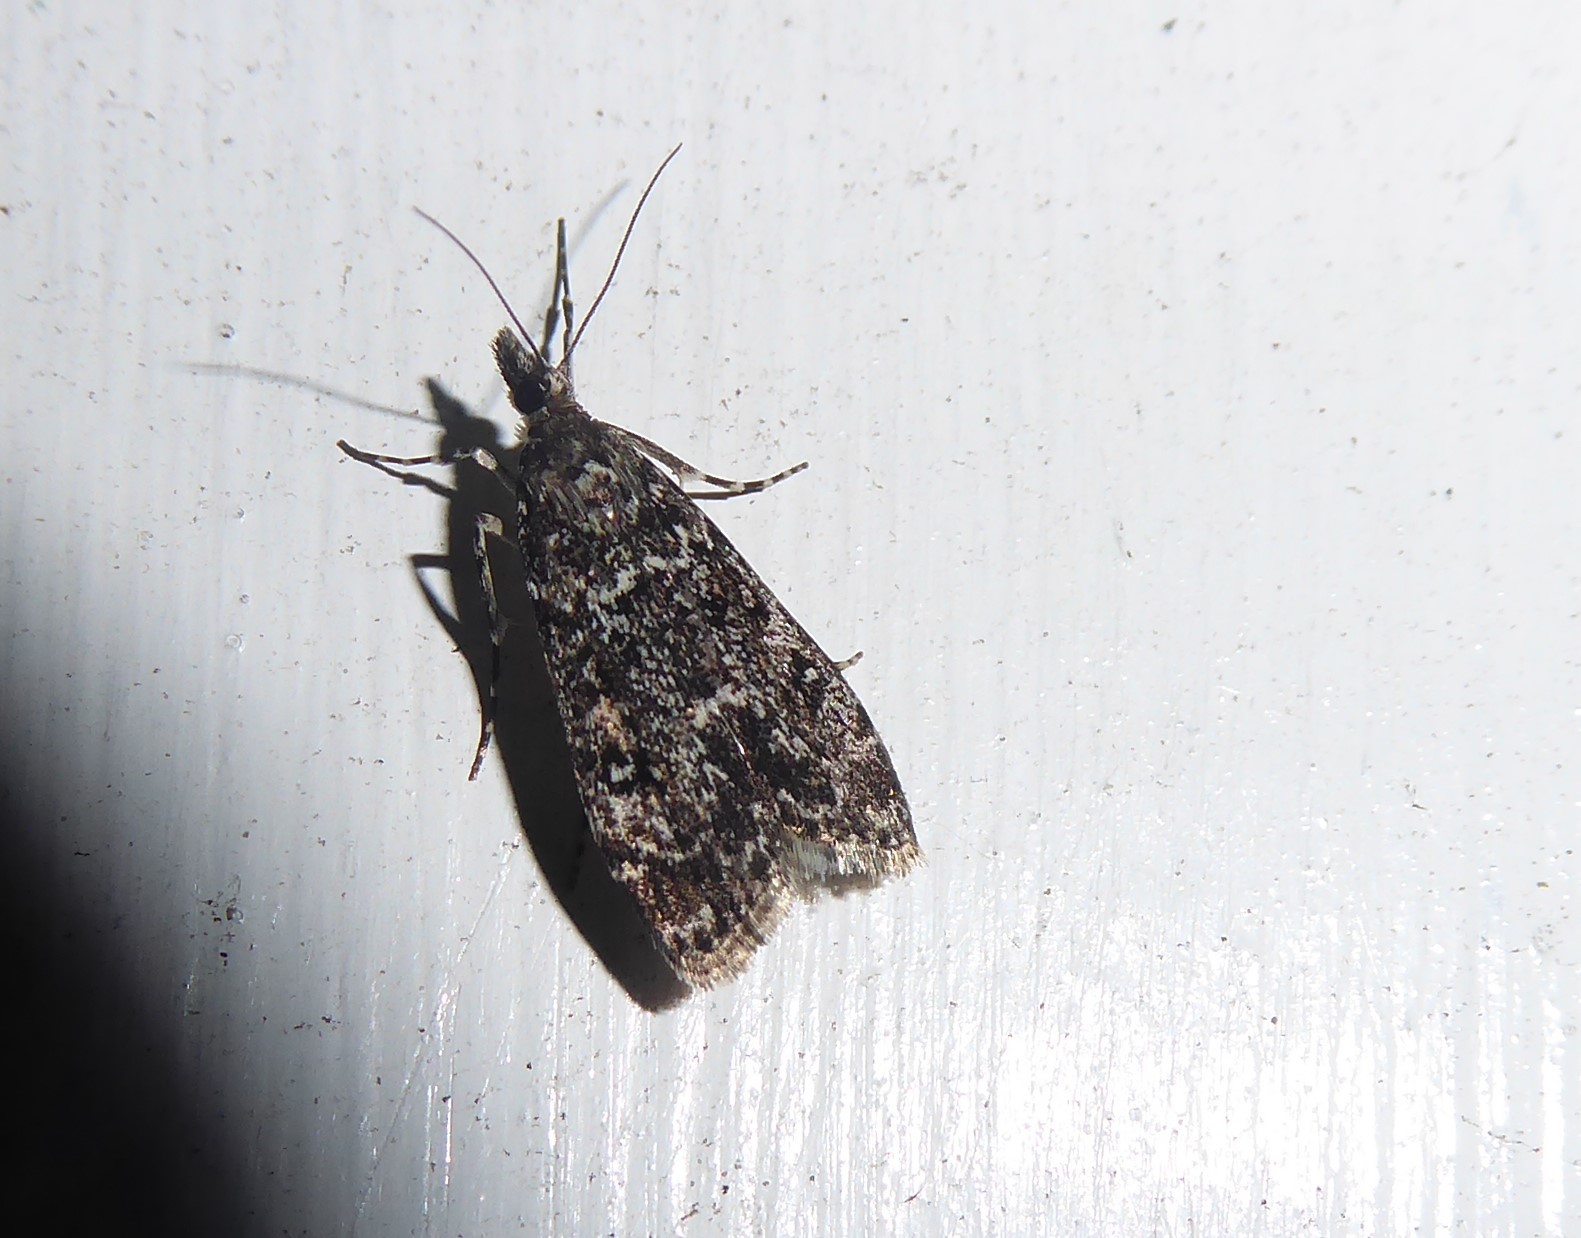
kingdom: Animalia
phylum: Arthropoda
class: Insecta
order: Lepidoptera
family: Crambidae
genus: Eudonia
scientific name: Eudonia philerga
